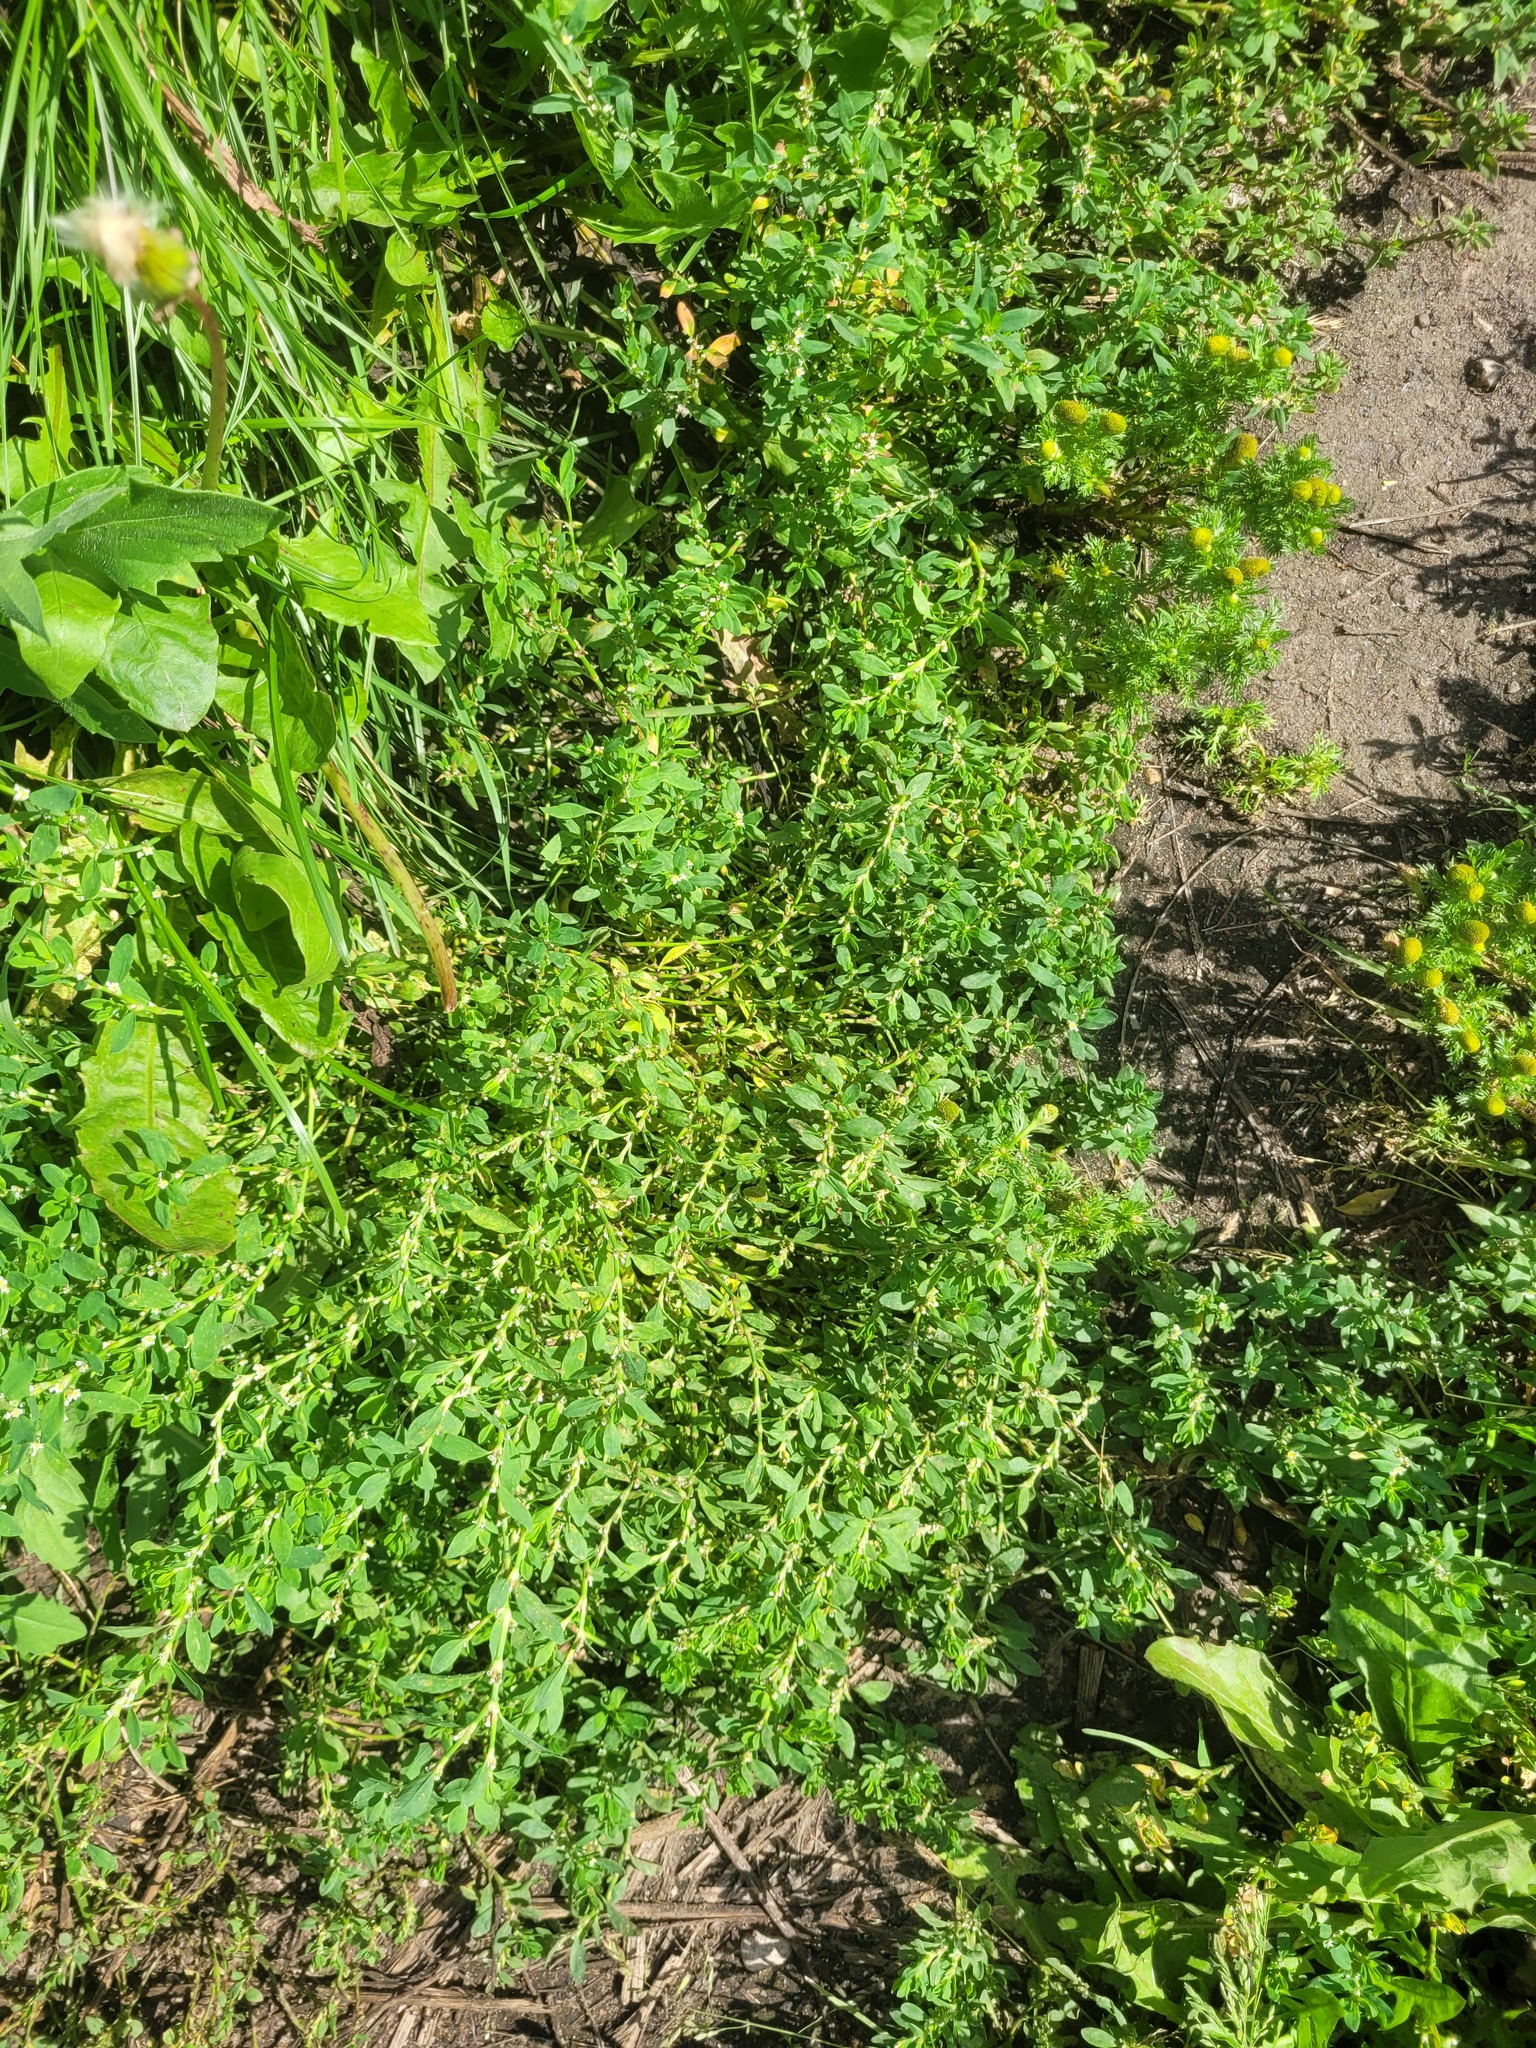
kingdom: Plantae
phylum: Tracheophyta
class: Magnoliopsida
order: Caryophyllales
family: Polygonaceae
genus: Polygonum
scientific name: Polygonum
